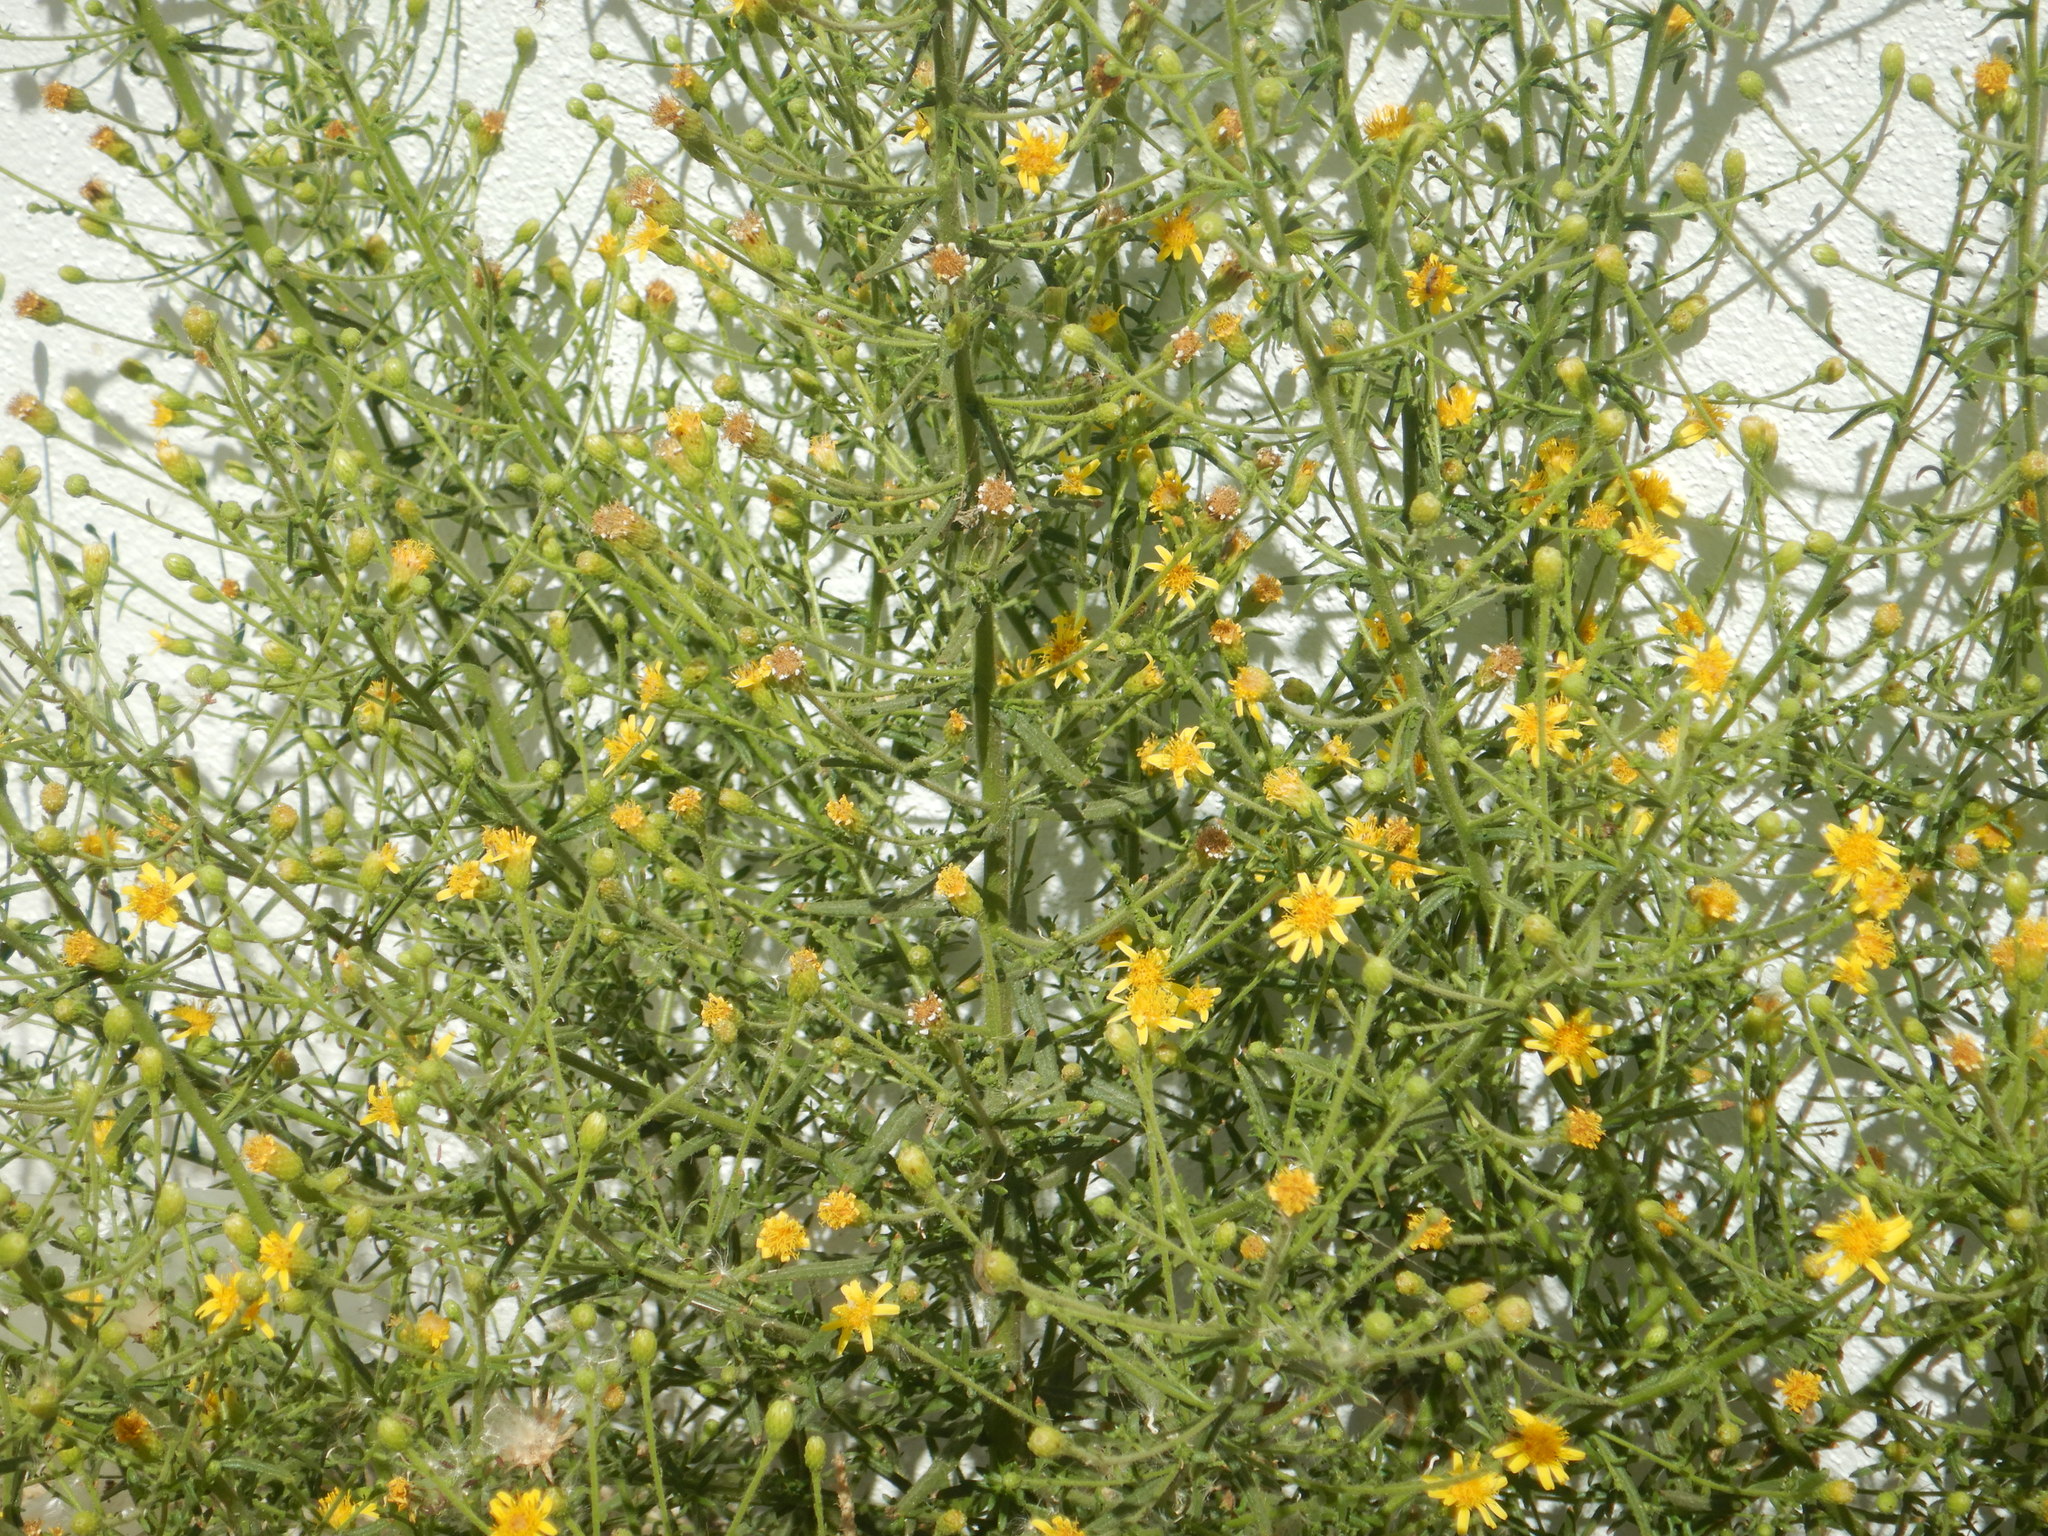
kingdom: Plantae
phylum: Tracheophyta
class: Magnoliopsida
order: Asterales
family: Asteraceae
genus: Dittrichia
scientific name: Dittrichia viscosa
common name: Woody fleabane
